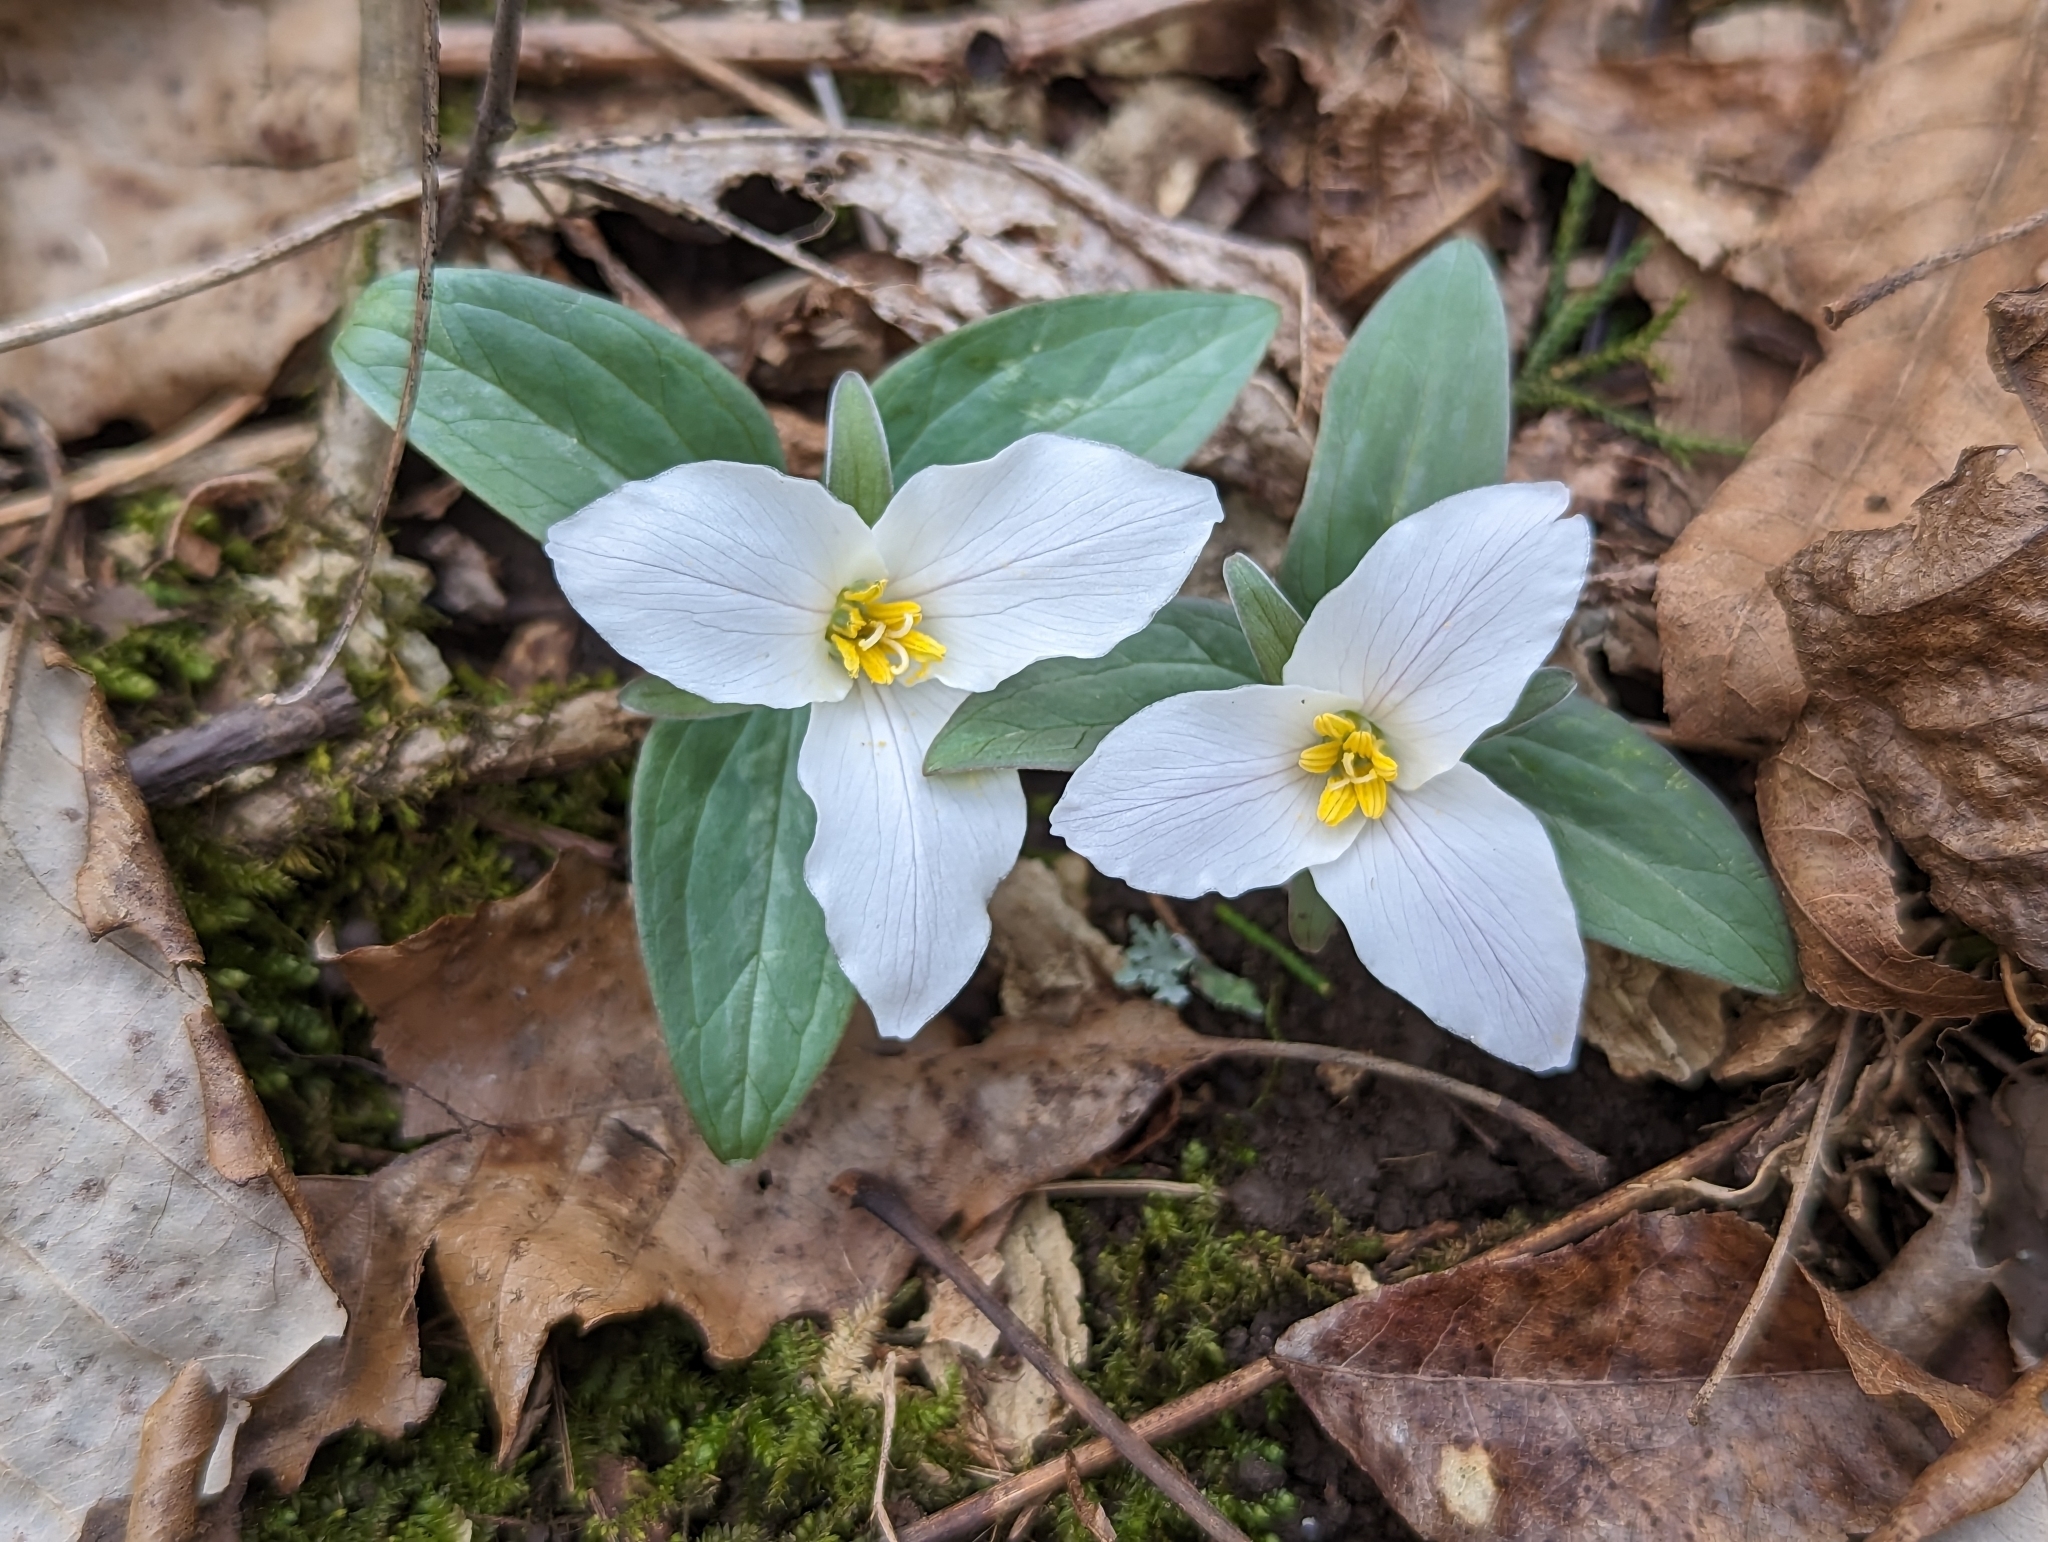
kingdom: Plantae
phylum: Tracheophyta
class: Liliopsida
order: Liliales
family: Melanthiaceae
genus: Trillium
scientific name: Trillium nivale
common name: Dwarf white trillium
